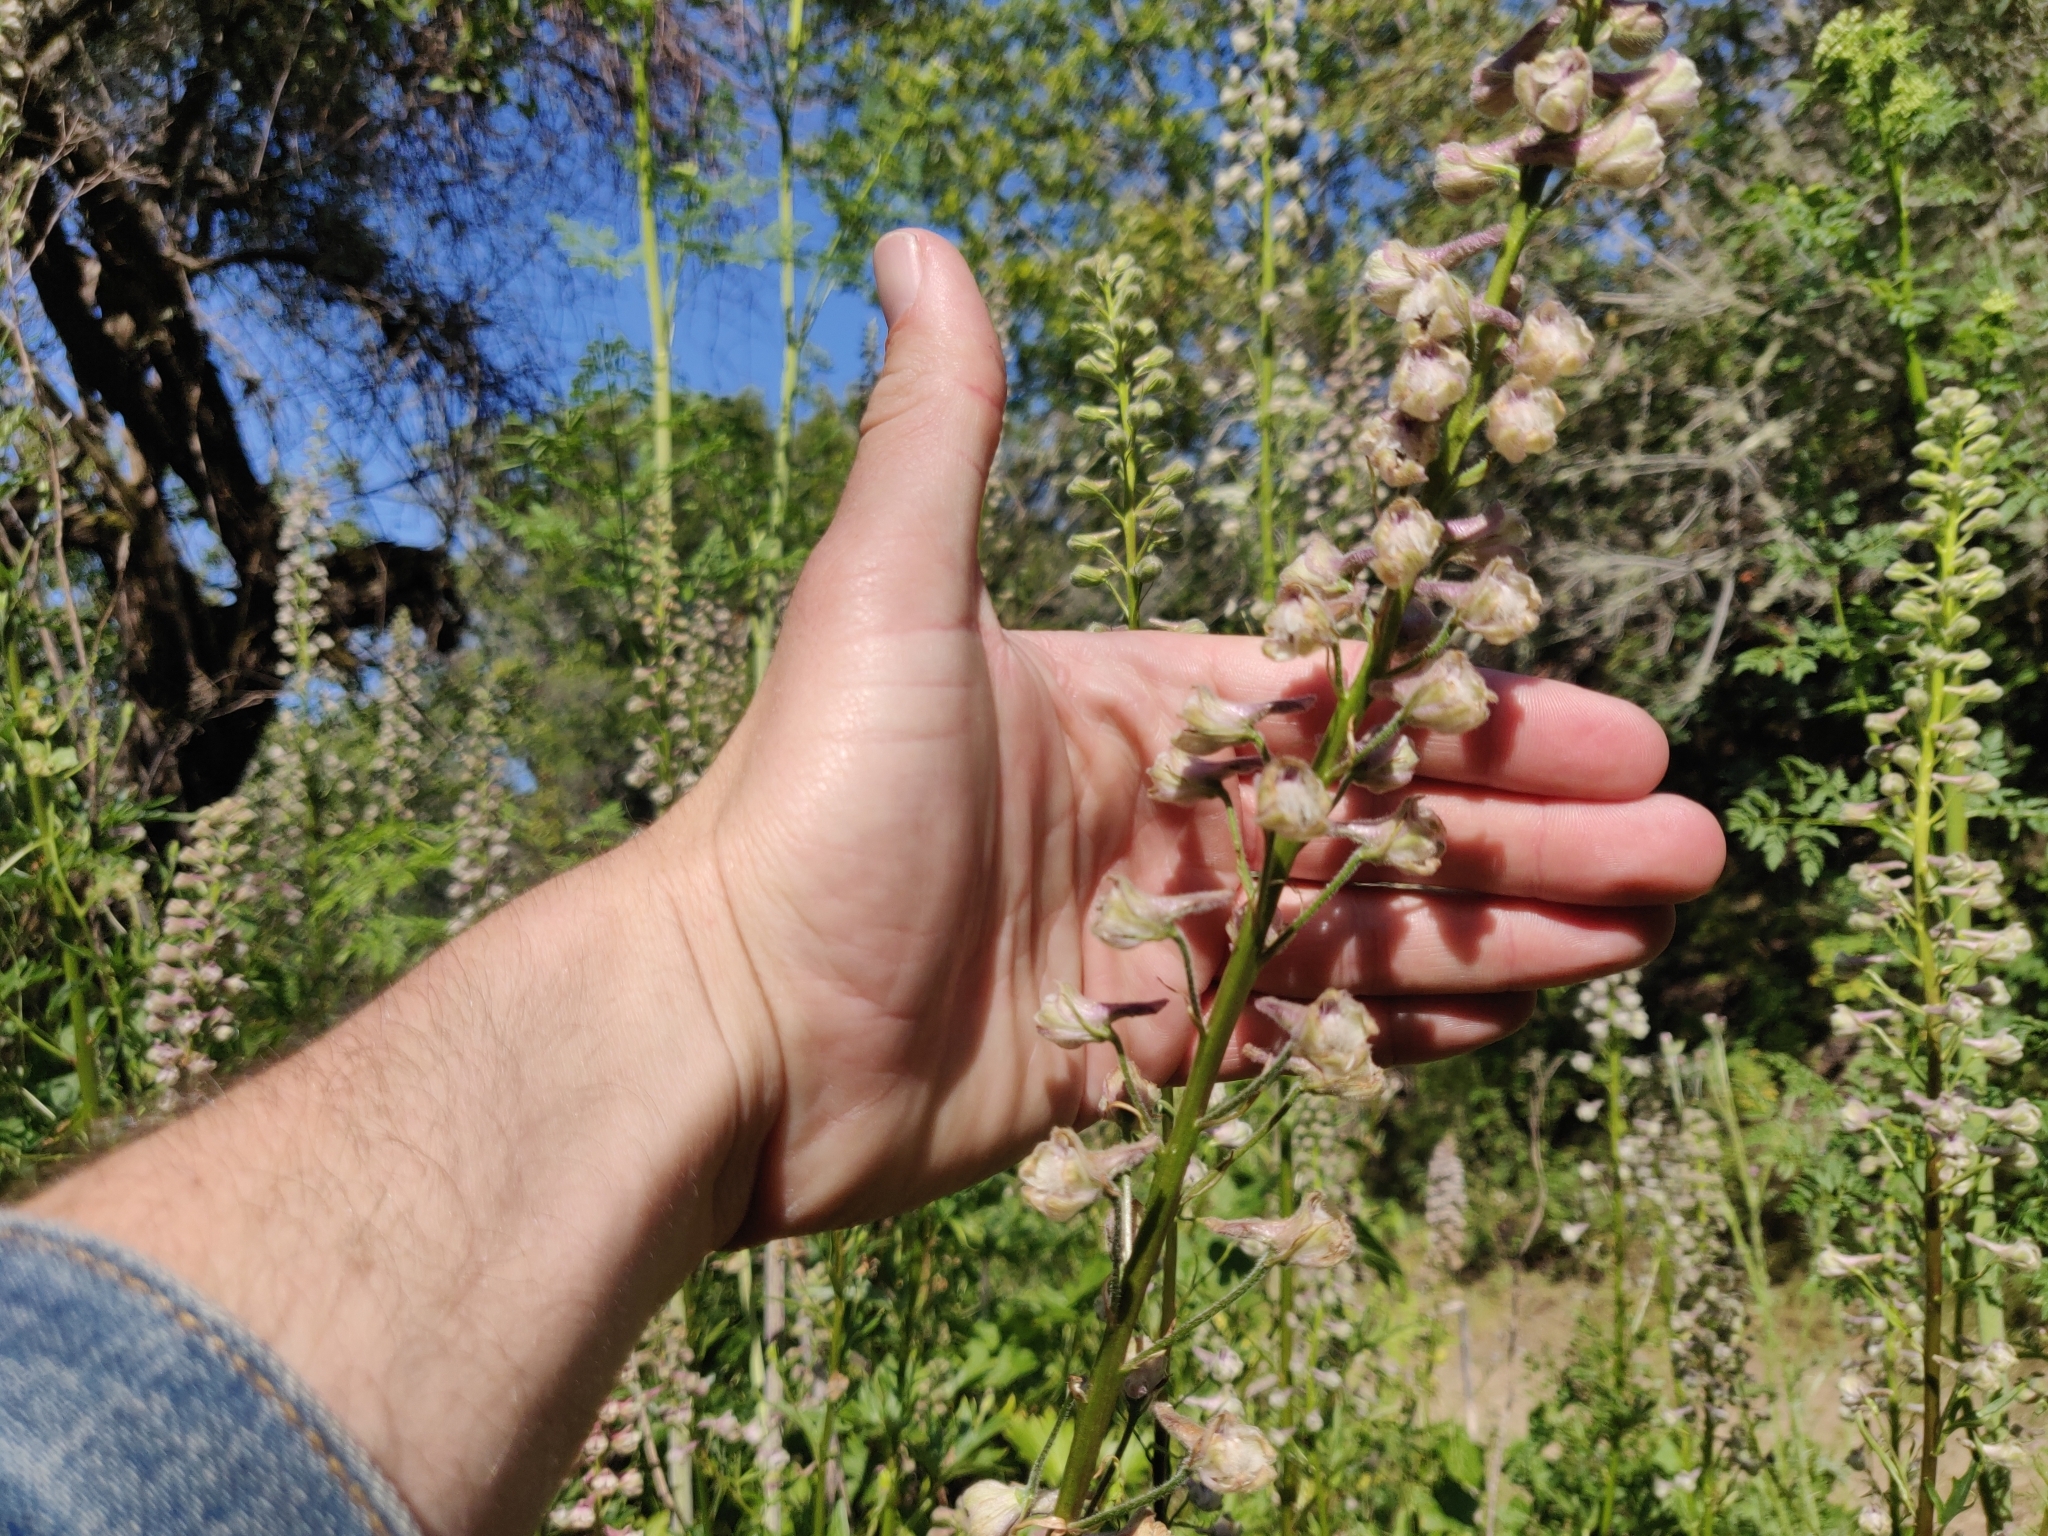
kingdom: Plantae
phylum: Tracheophyta
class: Magnoliopsida
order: Ranunculales
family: Ranunculaceae
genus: Delphinium
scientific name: Delphinium californicum
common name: California larkspur
